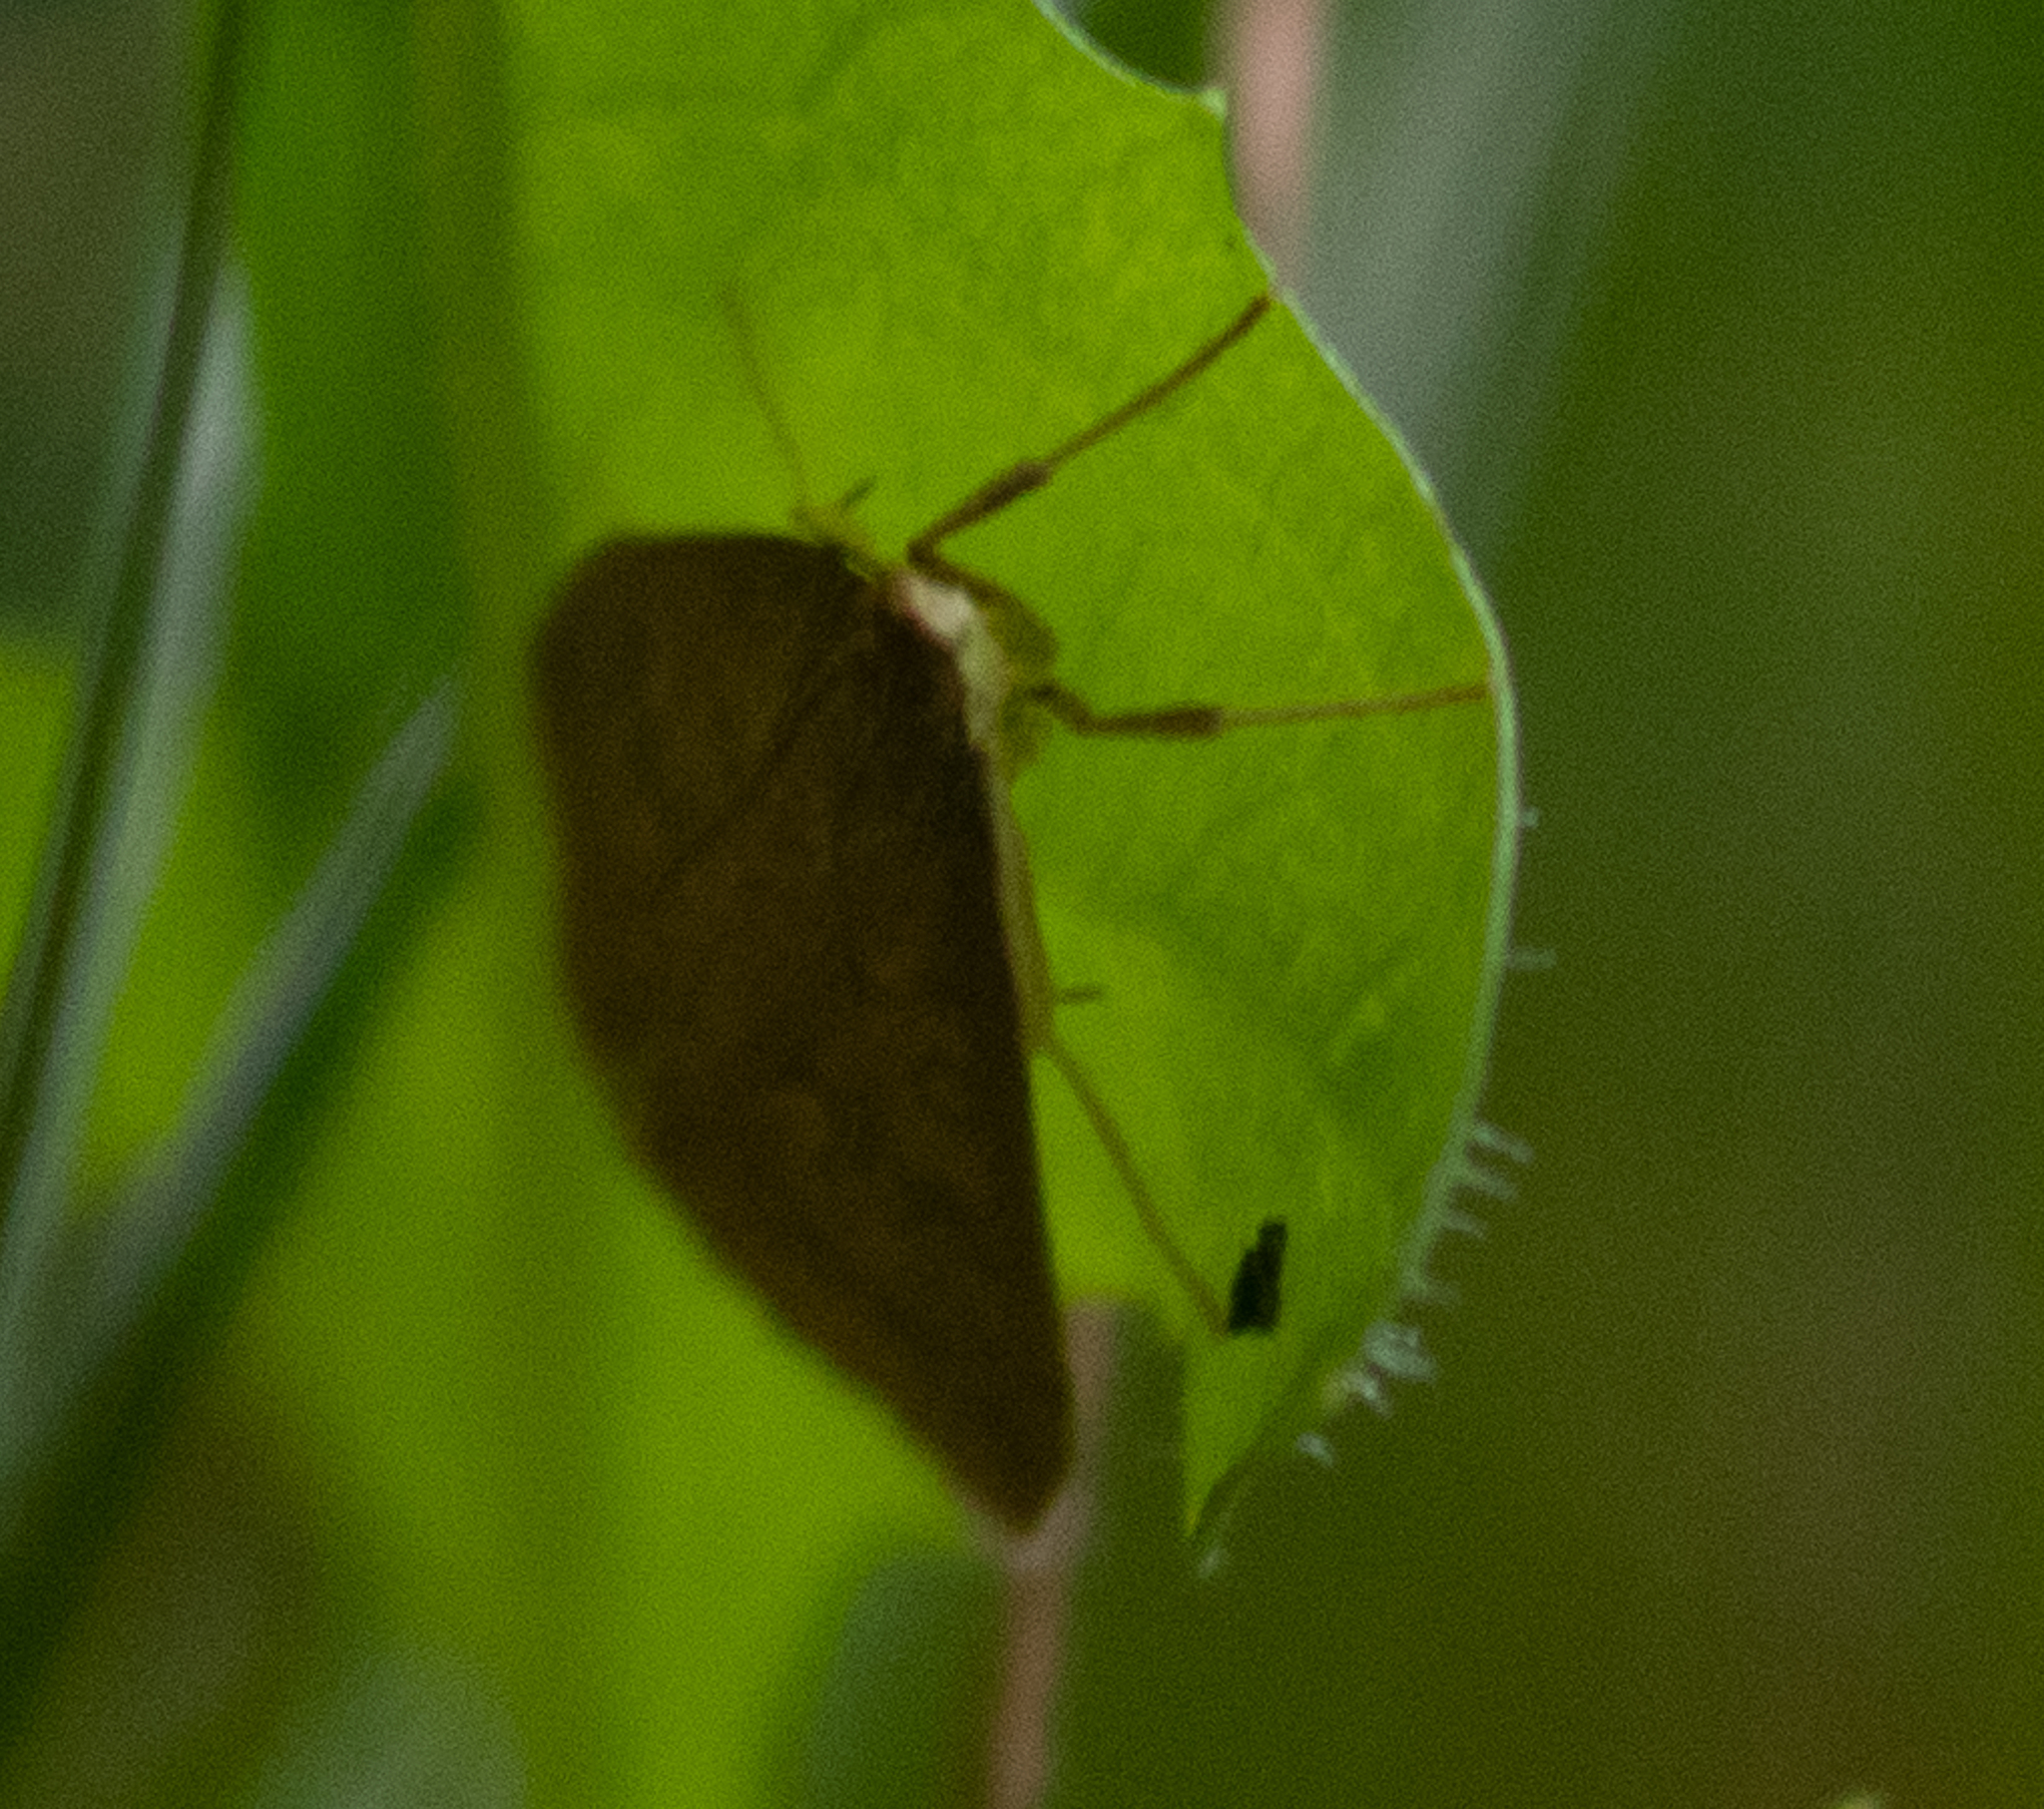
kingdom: Animalia
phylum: Arthropoda
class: Insecta
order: Lepidoptera
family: Crambidae
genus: Udea
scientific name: Udea rubigalis
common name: Celery leaftier moth
